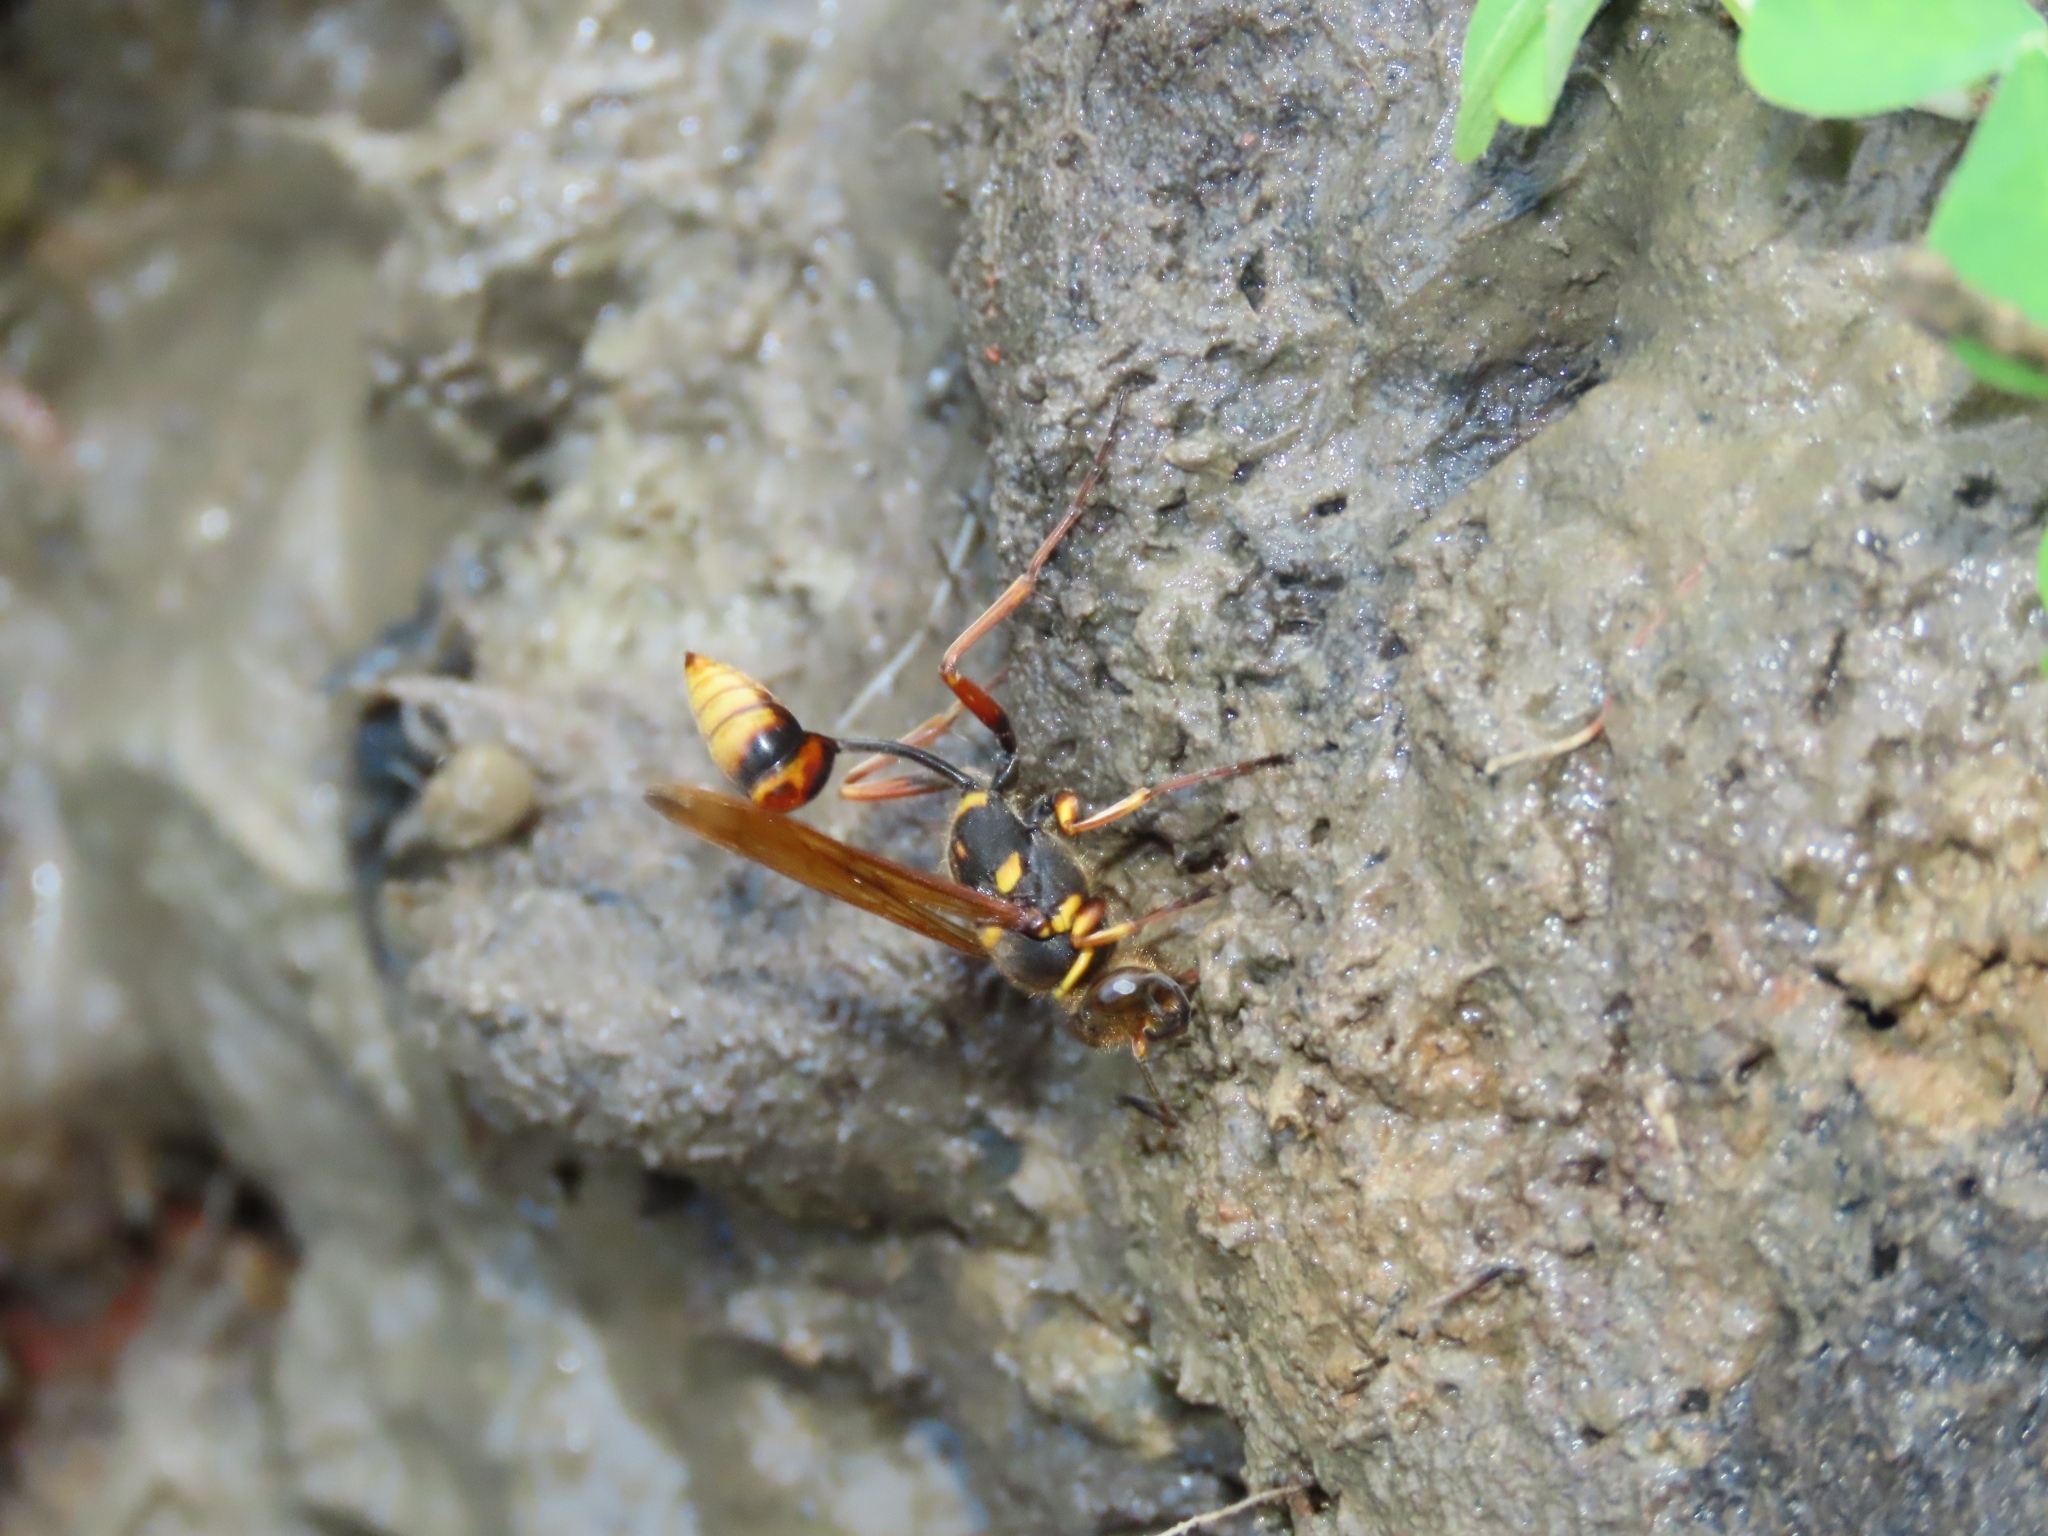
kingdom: Animalia
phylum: Arthropoda
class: Insecta
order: Hymenoptera
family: Sphecidae
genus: Sceliphron
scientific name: Sceliphron deforme
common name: Pelopèe
